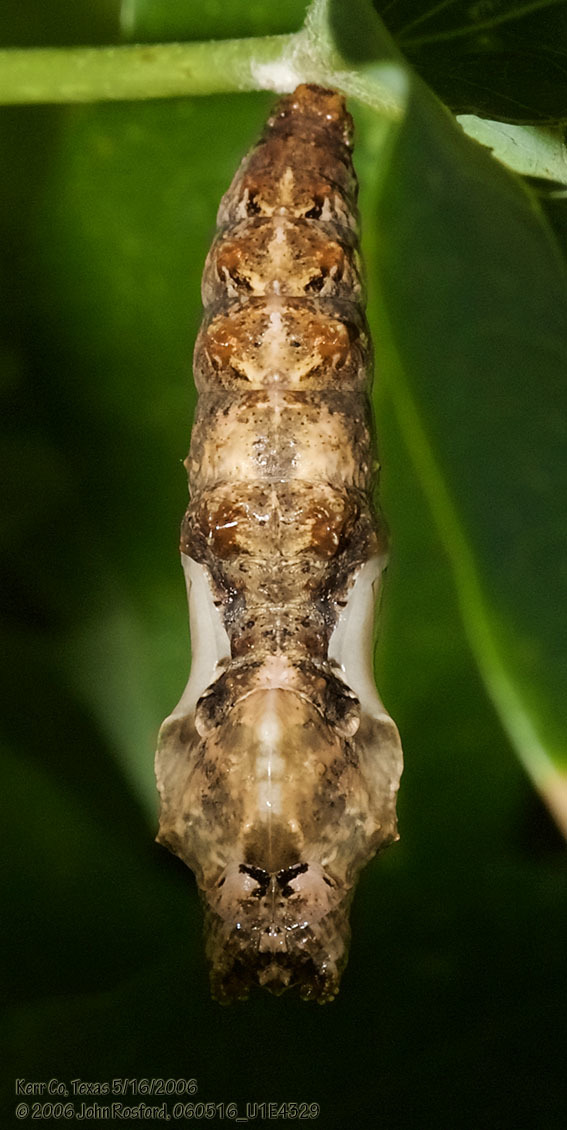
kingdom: Animalia
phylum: Arthropoda
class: Insecta
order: Lepidoptera
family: Nymphalidae
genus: Dione
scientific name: Dione vanillae
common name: Gulf fritillary
